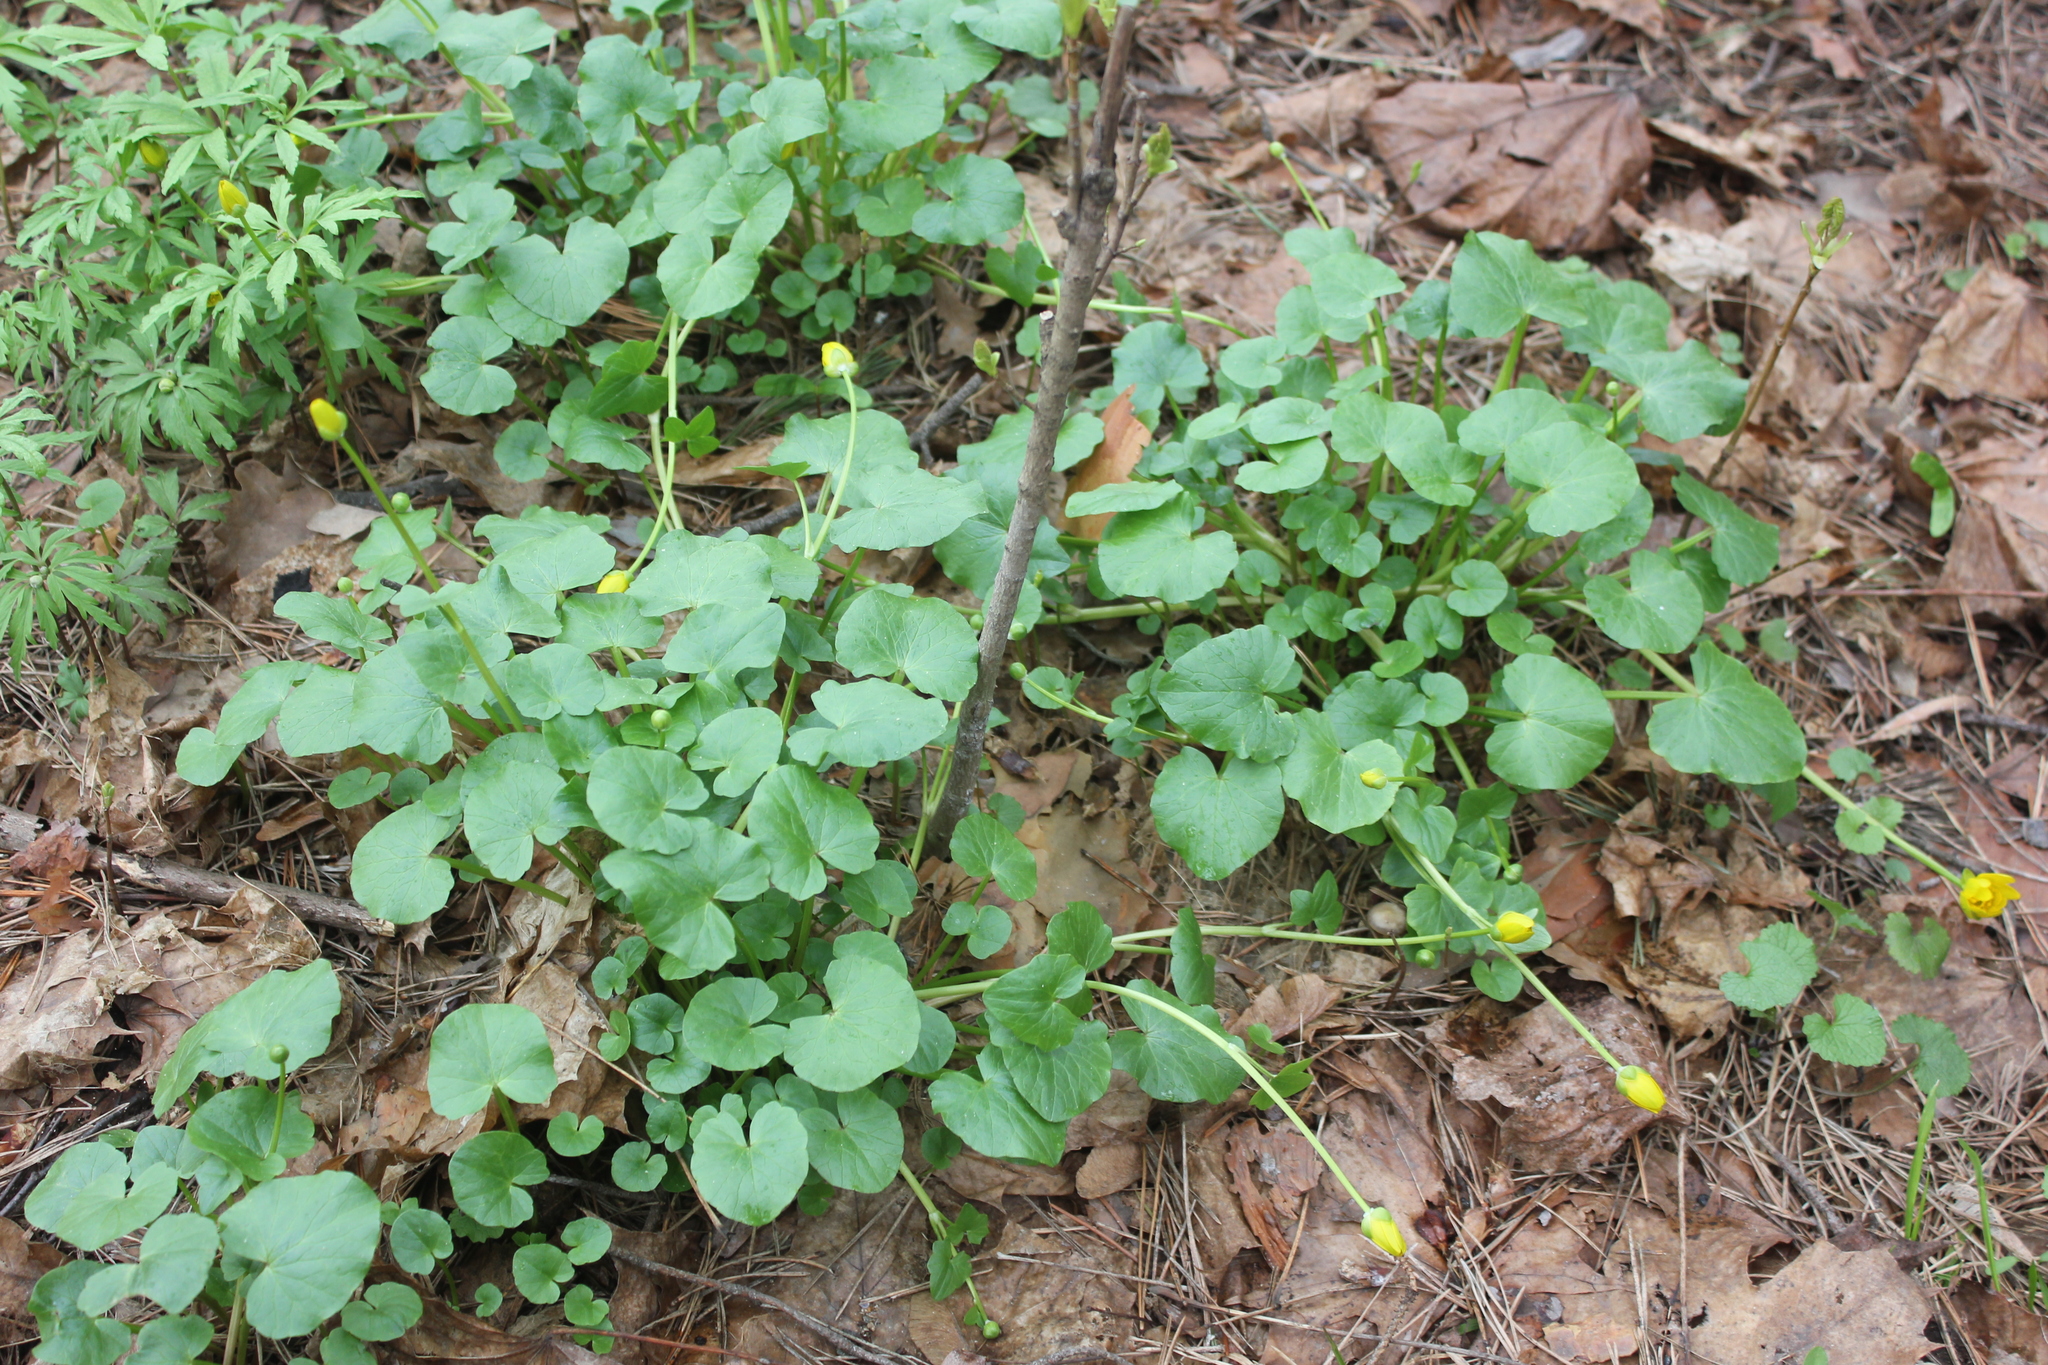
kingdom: Plantae
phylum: Tracheophyta
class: Magnoliopsida
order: Ranunculales
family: Ranunculaceae
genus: Ficaria
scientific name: Ficaria verna
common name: Lesser celandine
